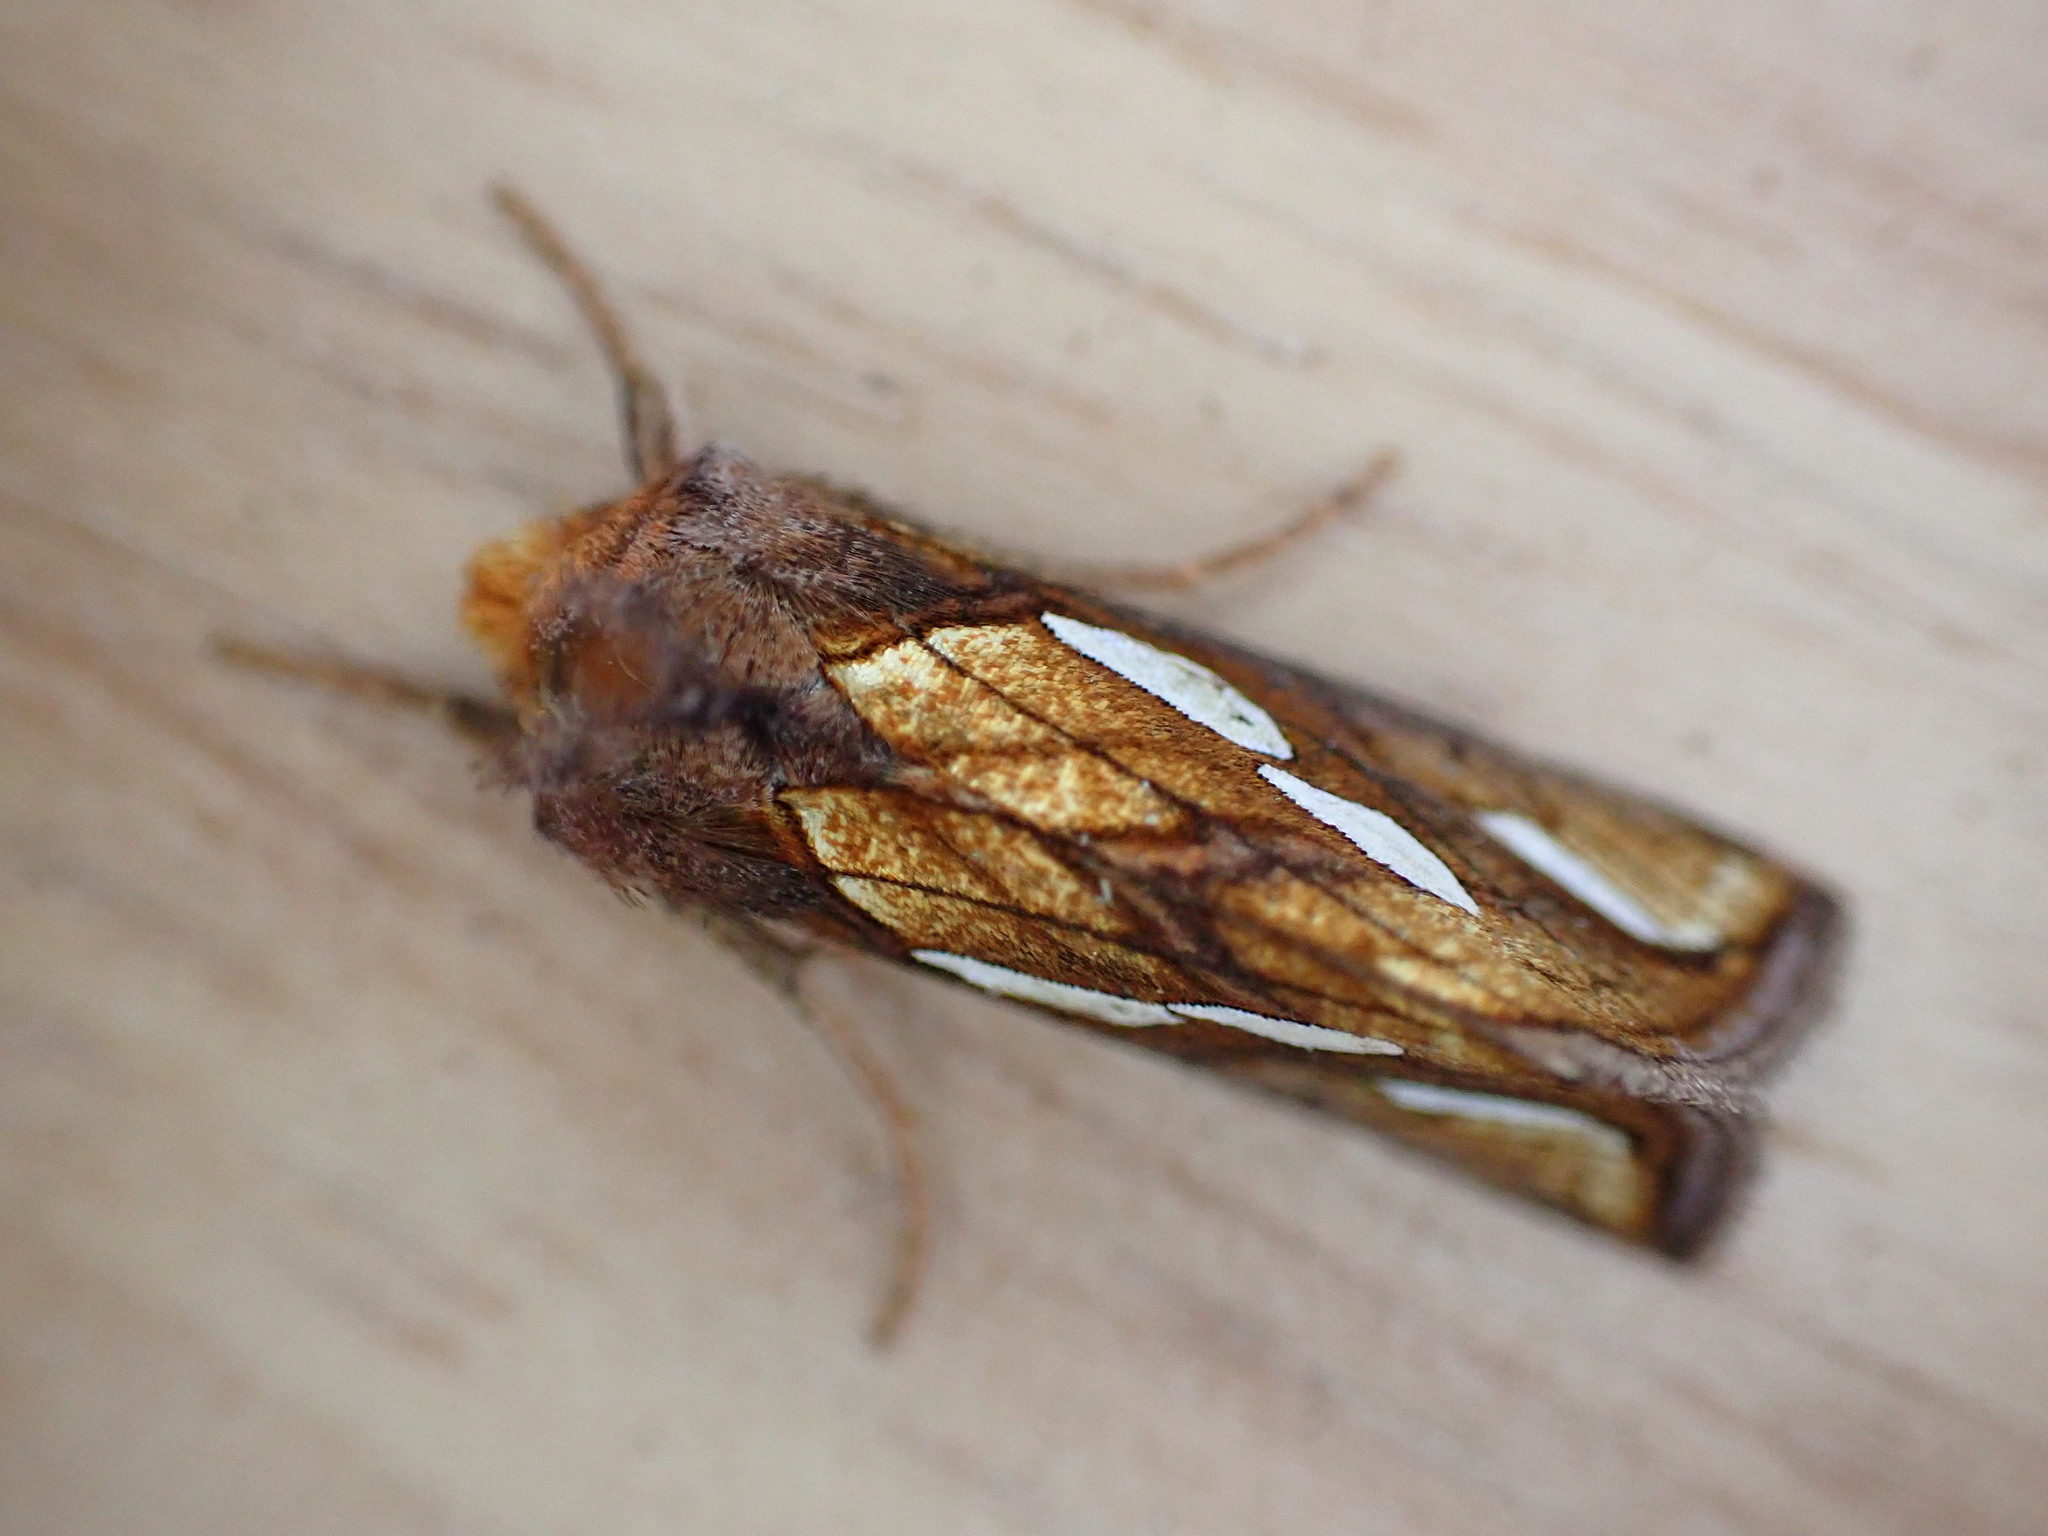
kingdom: Animalia
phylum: Arthropoda
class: Insecta
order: Lepidoptera
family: Noctuidae
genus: Plusia
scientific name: Plusia festucae
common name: Gold spot
